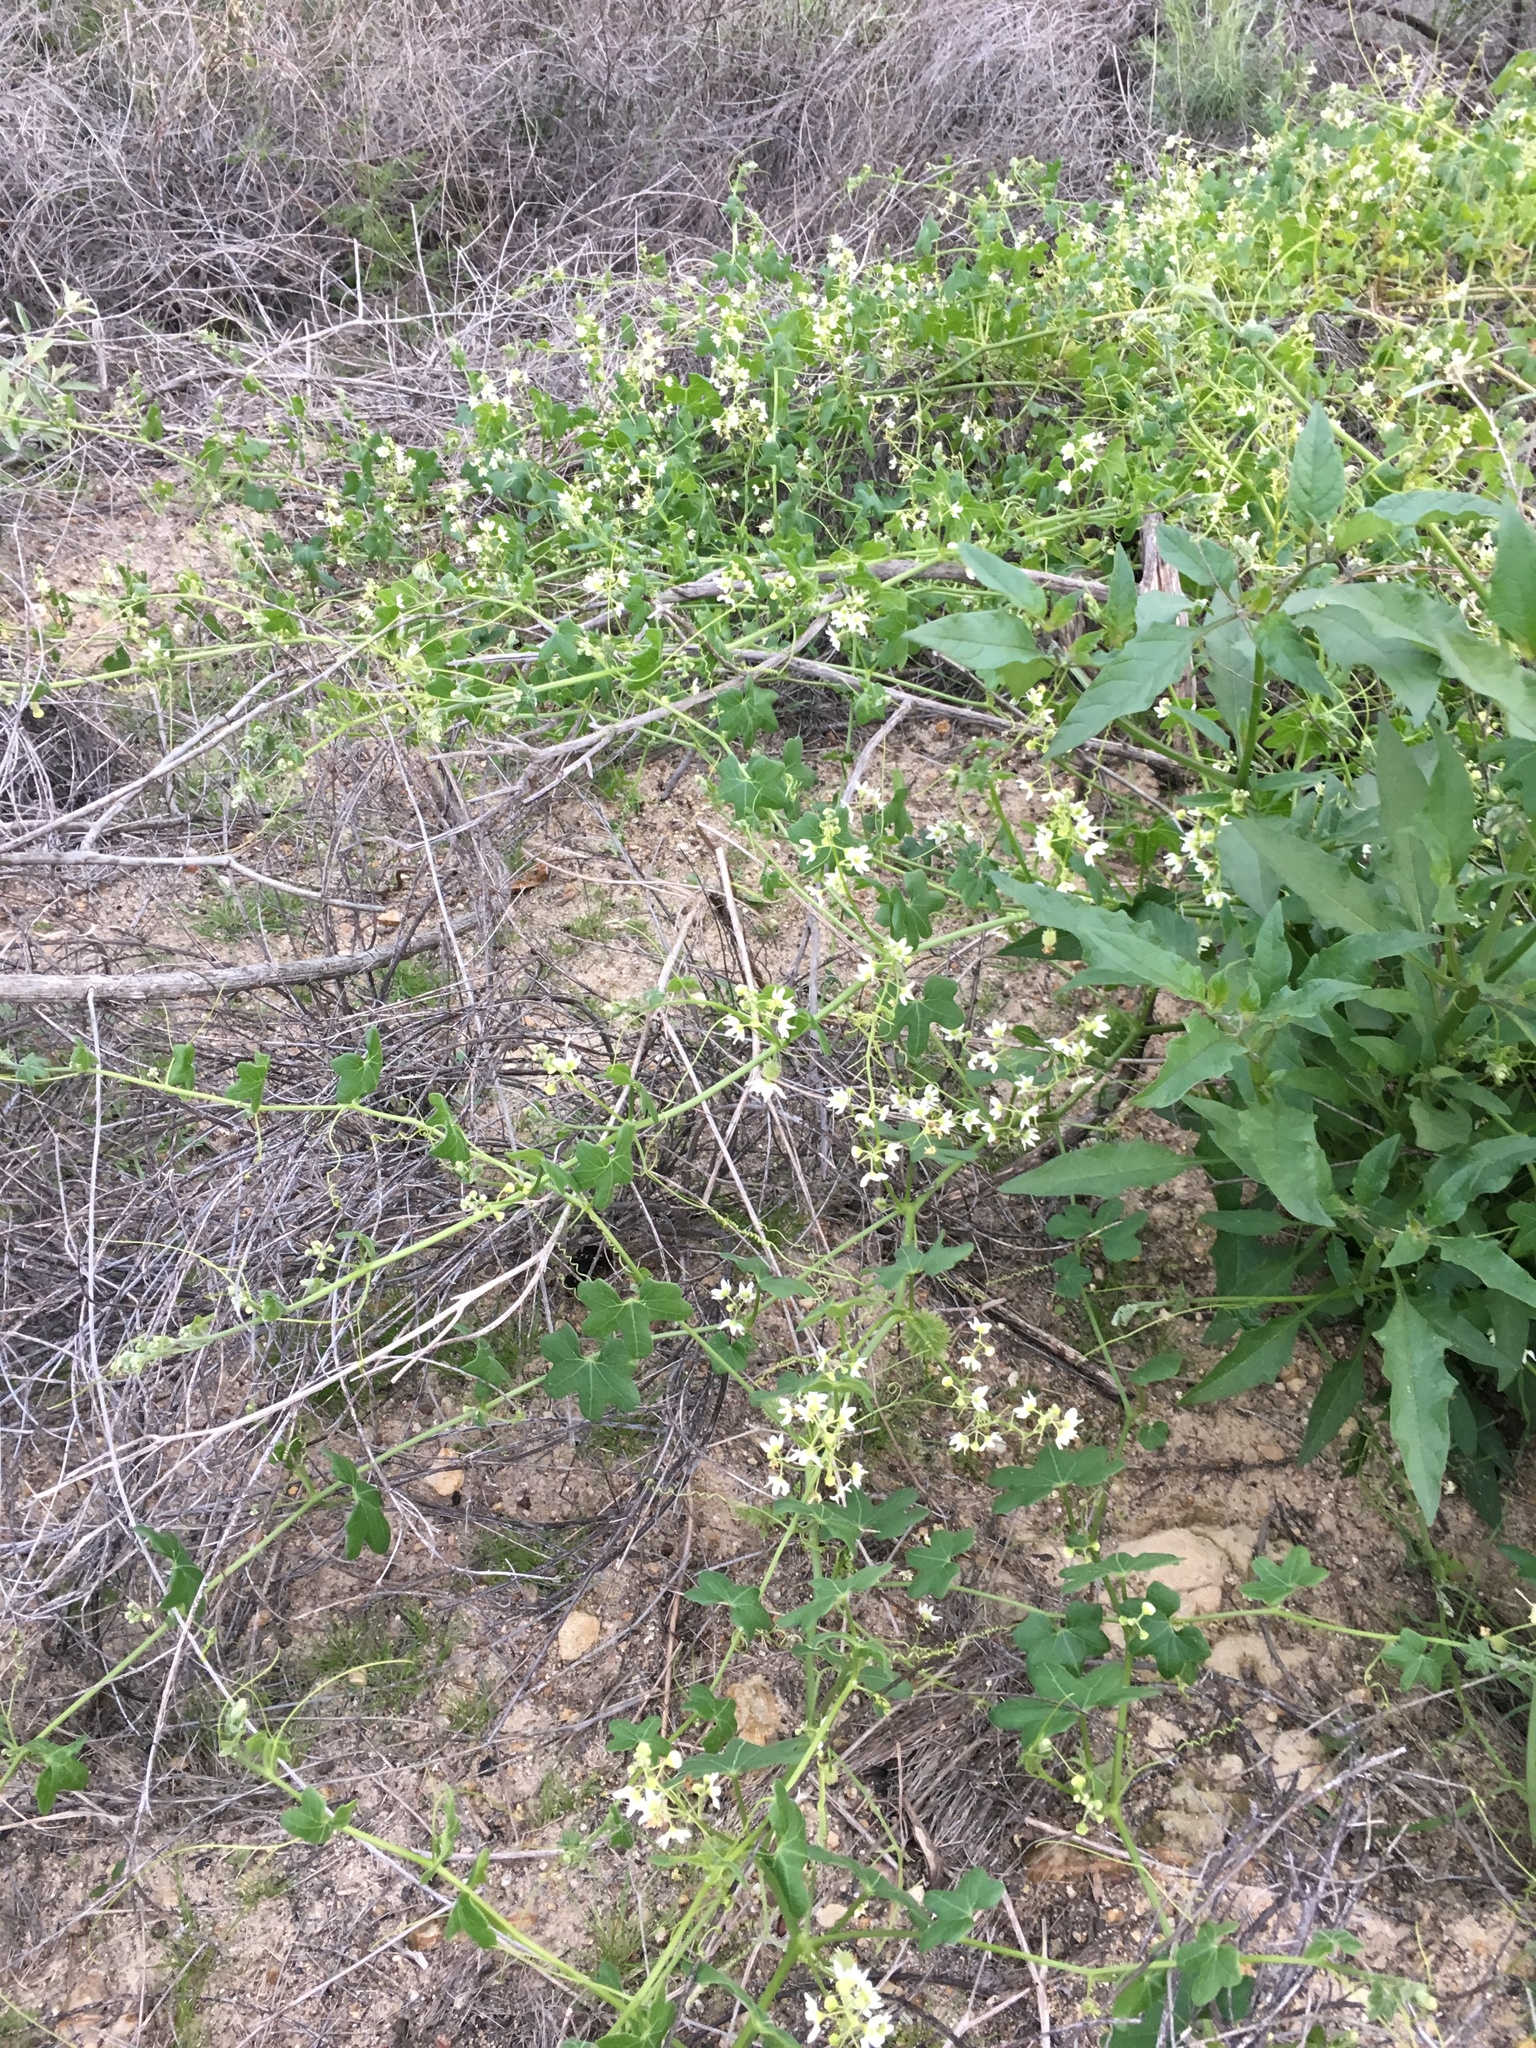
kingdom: Plantae
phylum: Tracheophyta
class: Magnoliopsida
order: Cucurbitales
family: Cucurbitaceae
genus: Marah
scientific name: Marah macrocarpa
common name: Cucamonga manroot
